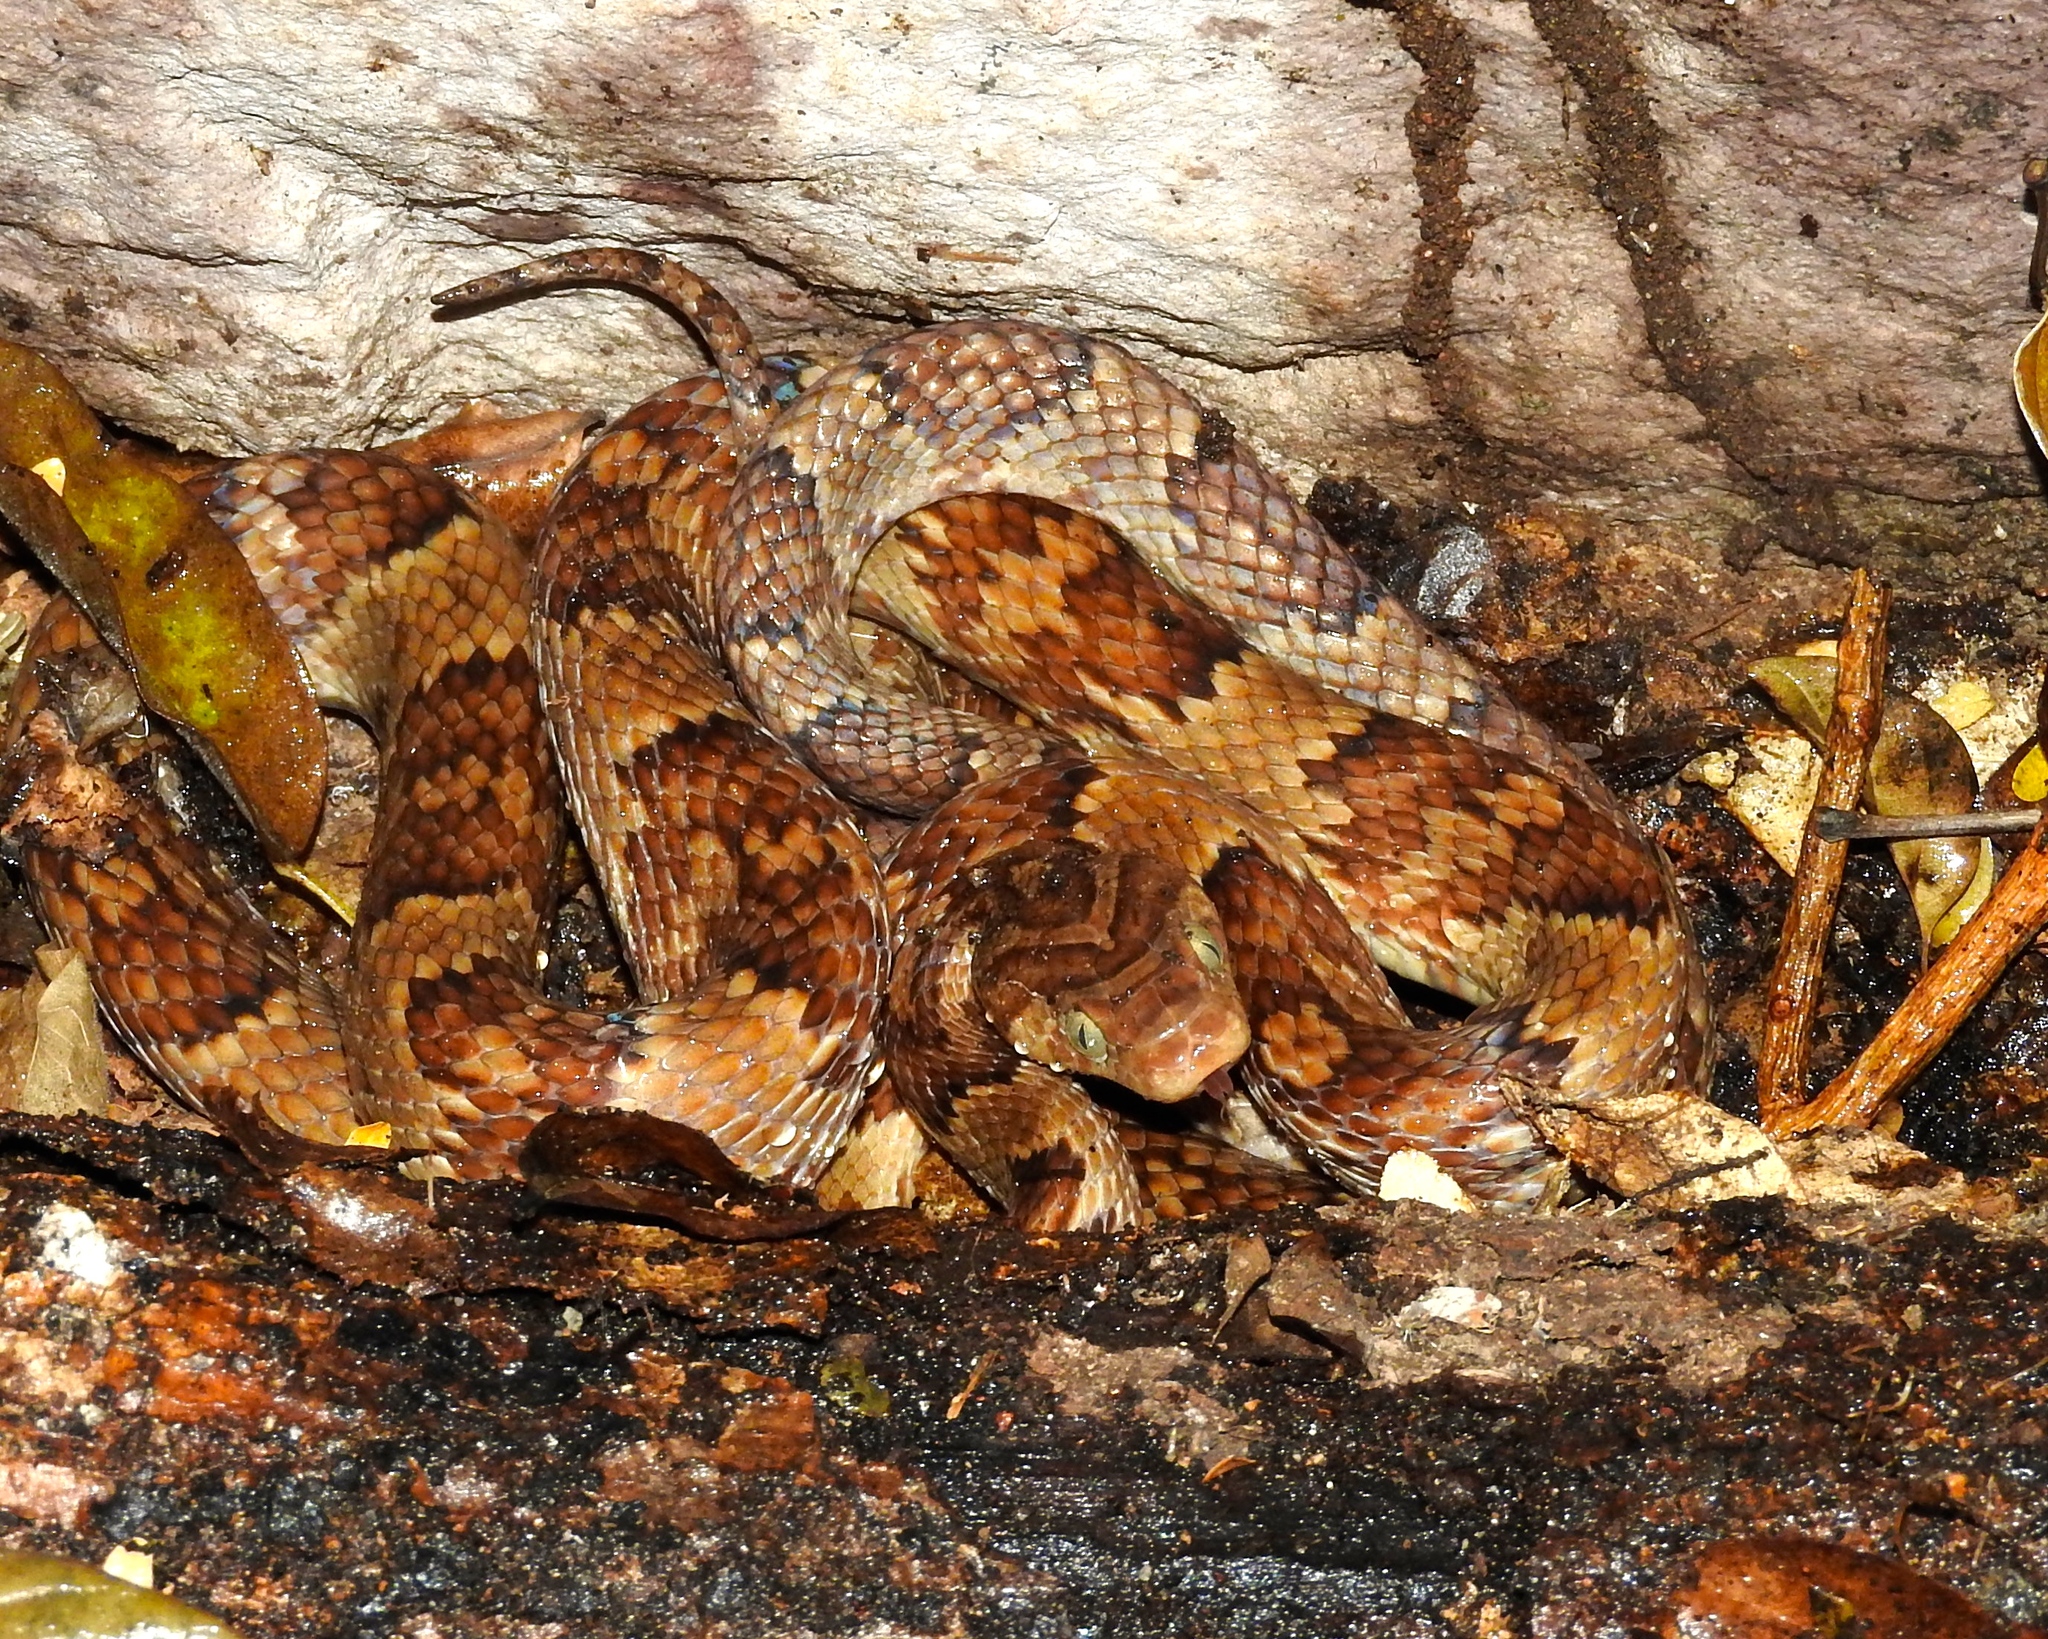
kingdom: Animalia
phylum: Chordata
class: Squamata
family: Colubridae
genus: Trimorphodon
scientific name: Trimorphodon paucimaculatus
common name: Sinaloan lyresnake
